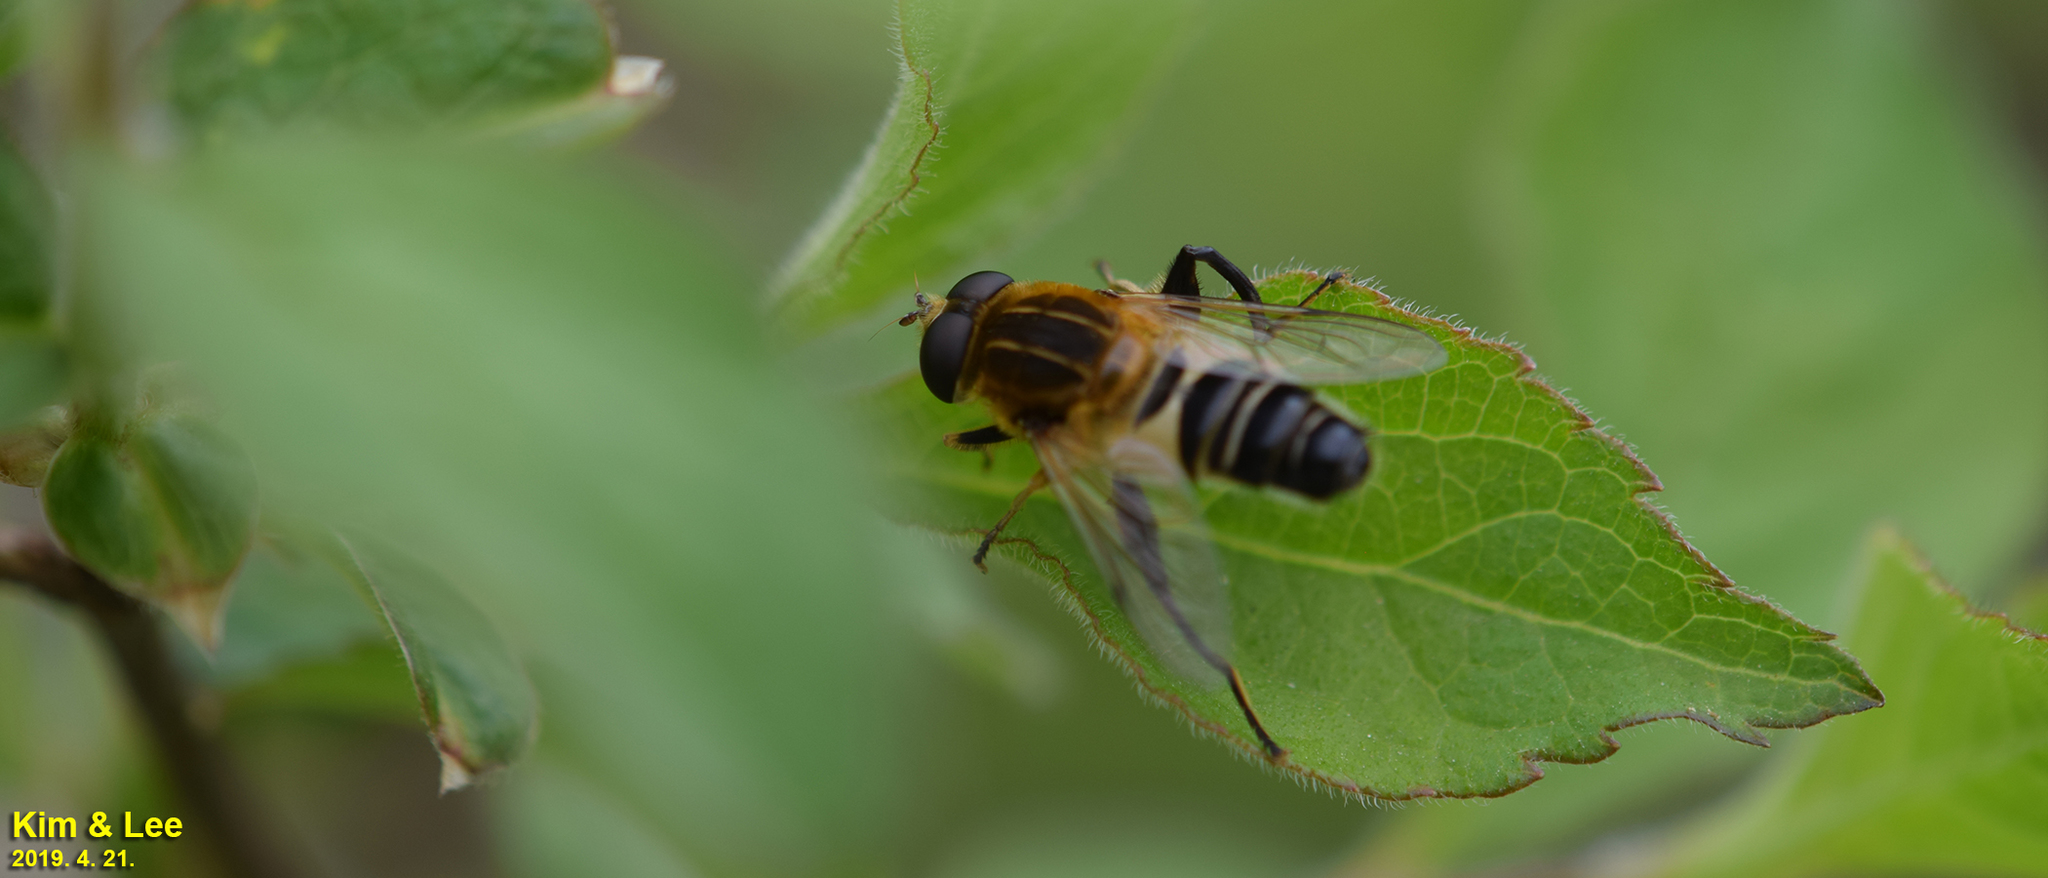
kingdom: Animalia
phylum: Arthropoda
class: Insecta
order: Diptera
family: Syrphidae
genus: Helophilus
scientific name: Helophilus eristaloideus
